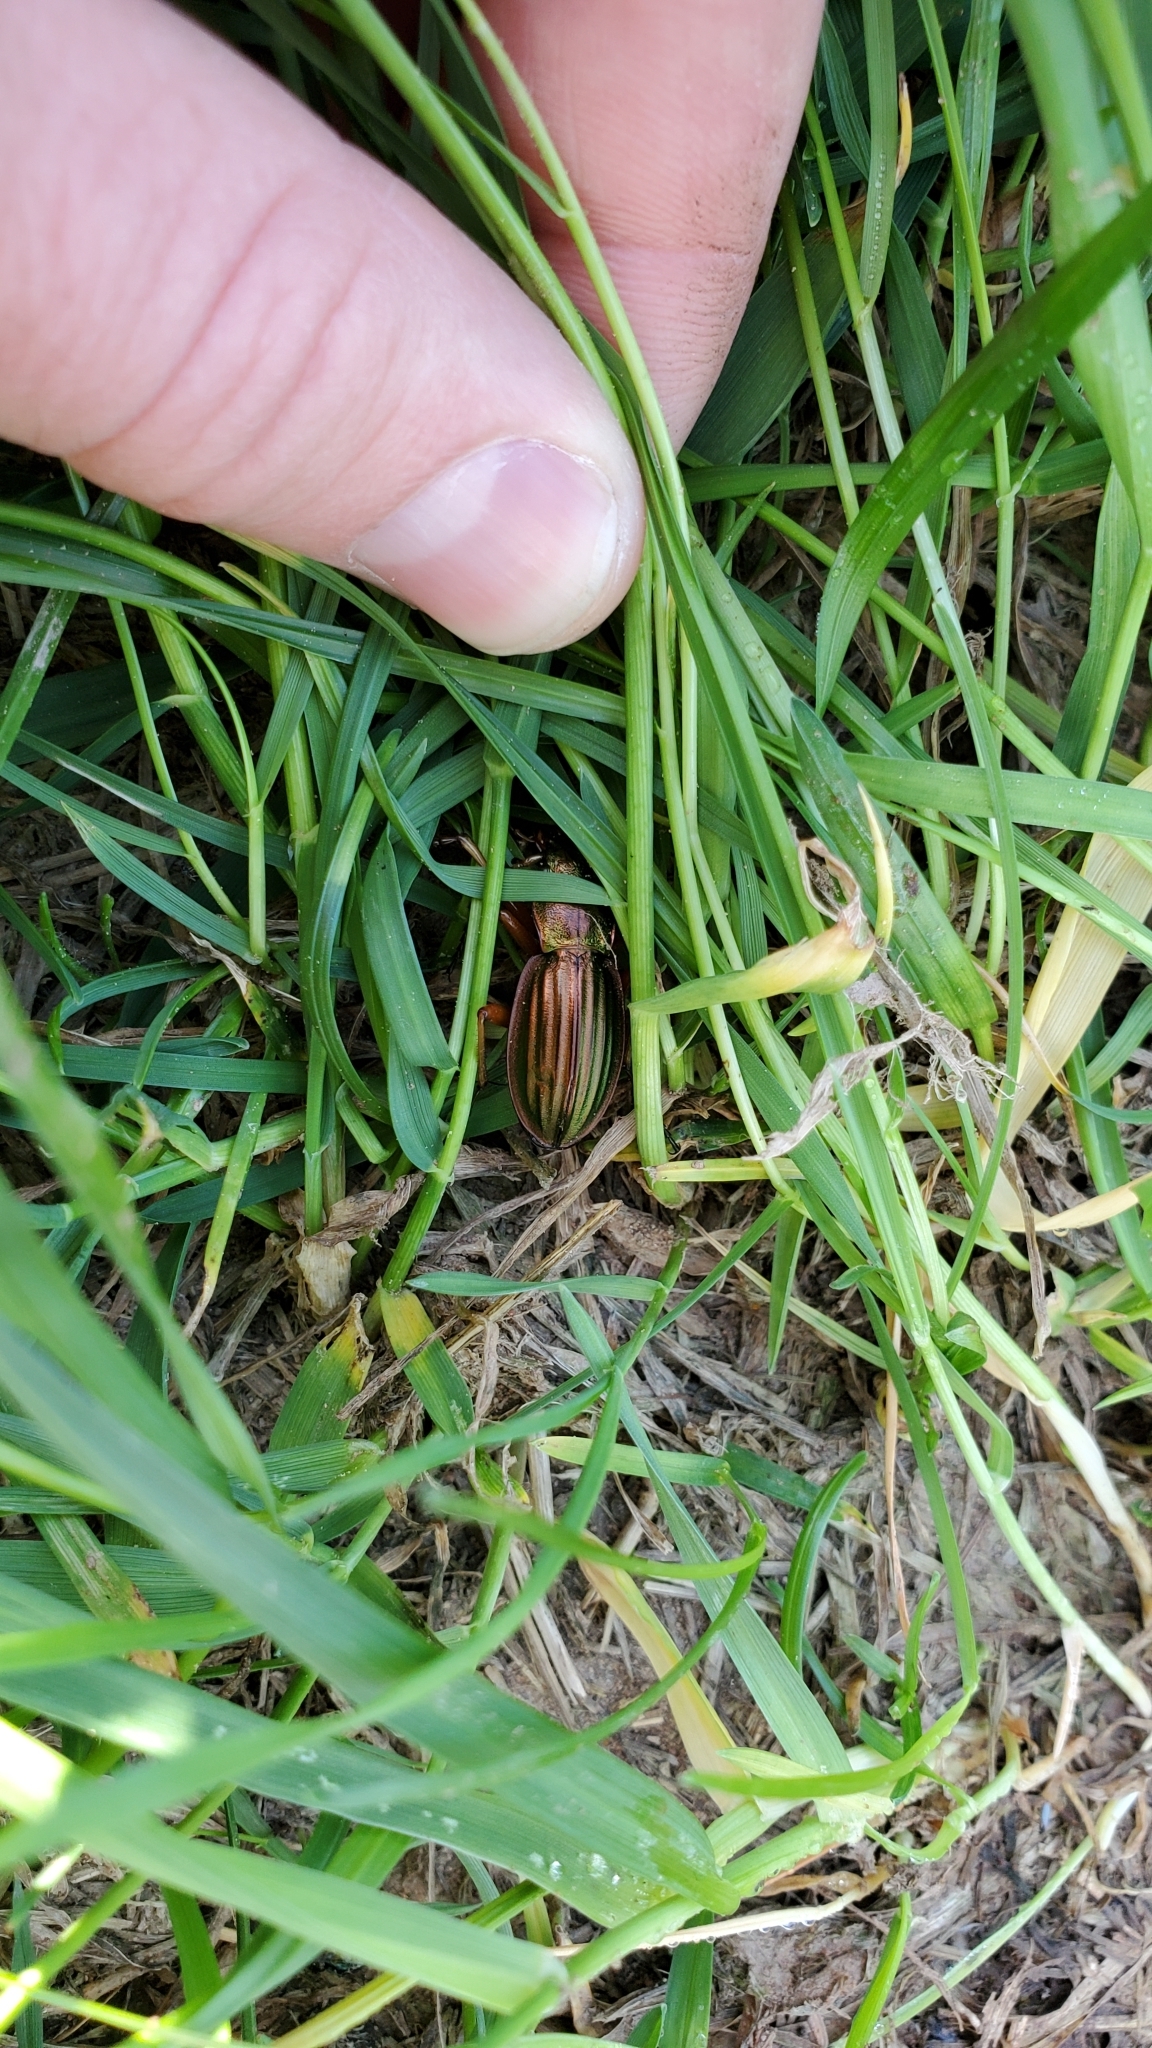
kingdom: Animalia
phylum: Arthropoda
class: Insecta
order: Coleoptera
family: Carabidae
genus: Carabus
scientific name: Carabus auratus
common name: Golden ground beetle
